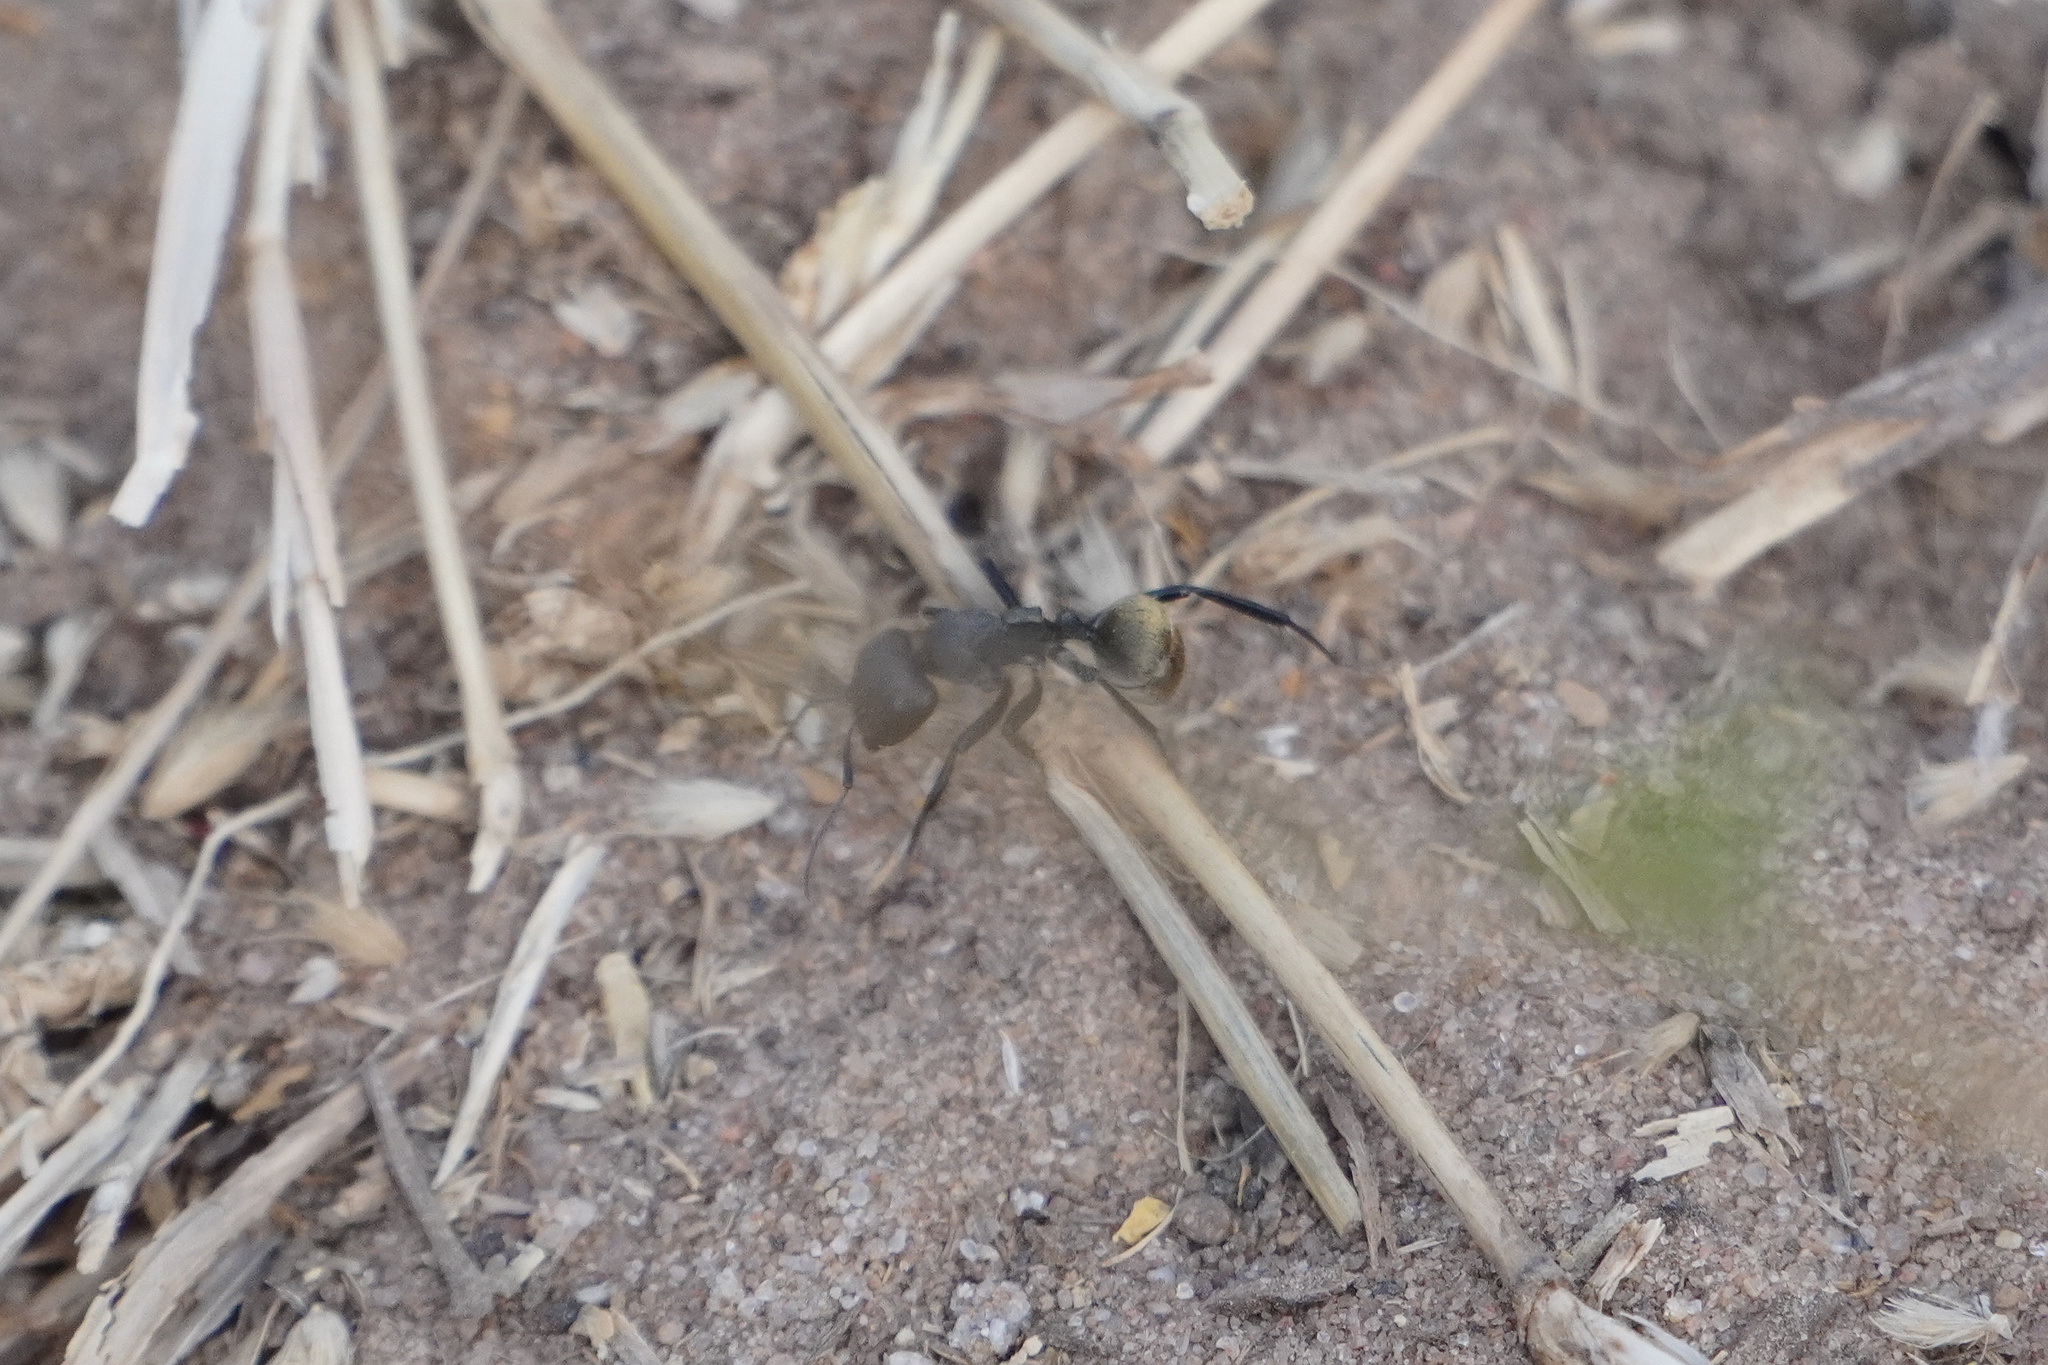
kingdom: Animalia
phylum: Arthropoda
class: Insecta
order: Hymenoptera
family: Formicidae
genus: Camponotus
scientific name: Camponotus sericeus
